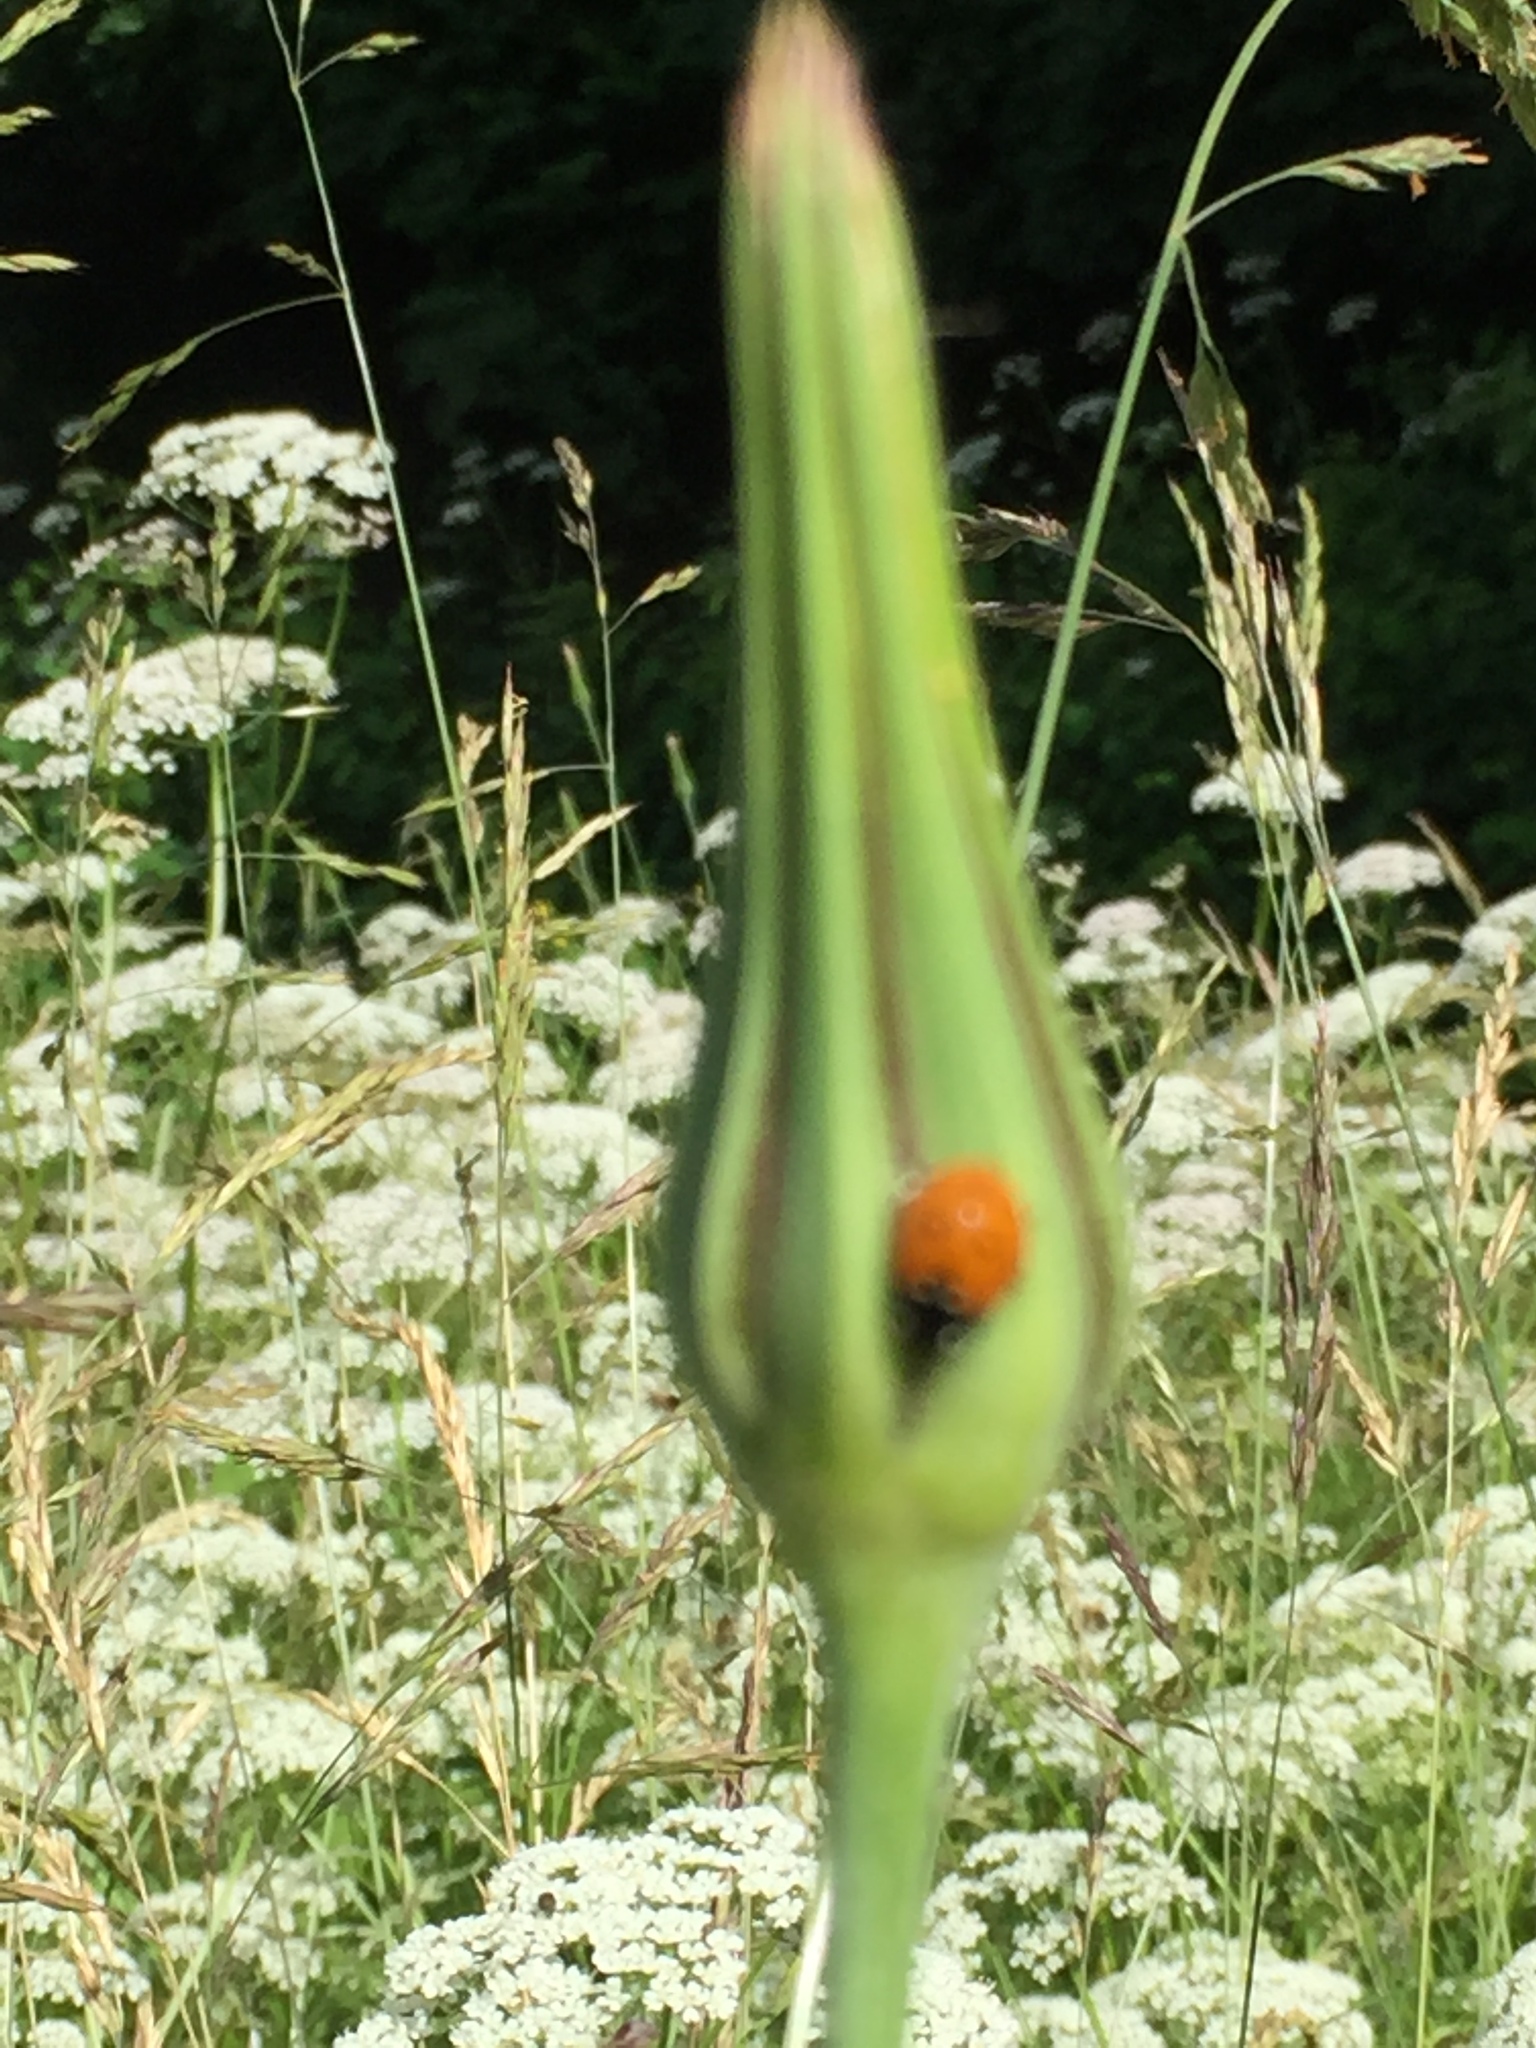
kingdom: Animalia
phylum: Arthropoda
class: Insecta
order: Coleoptera
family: Coccinellidae
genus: Coccinella
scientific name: Coccinella septempunctata
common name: Sevenspotted lady beetle
